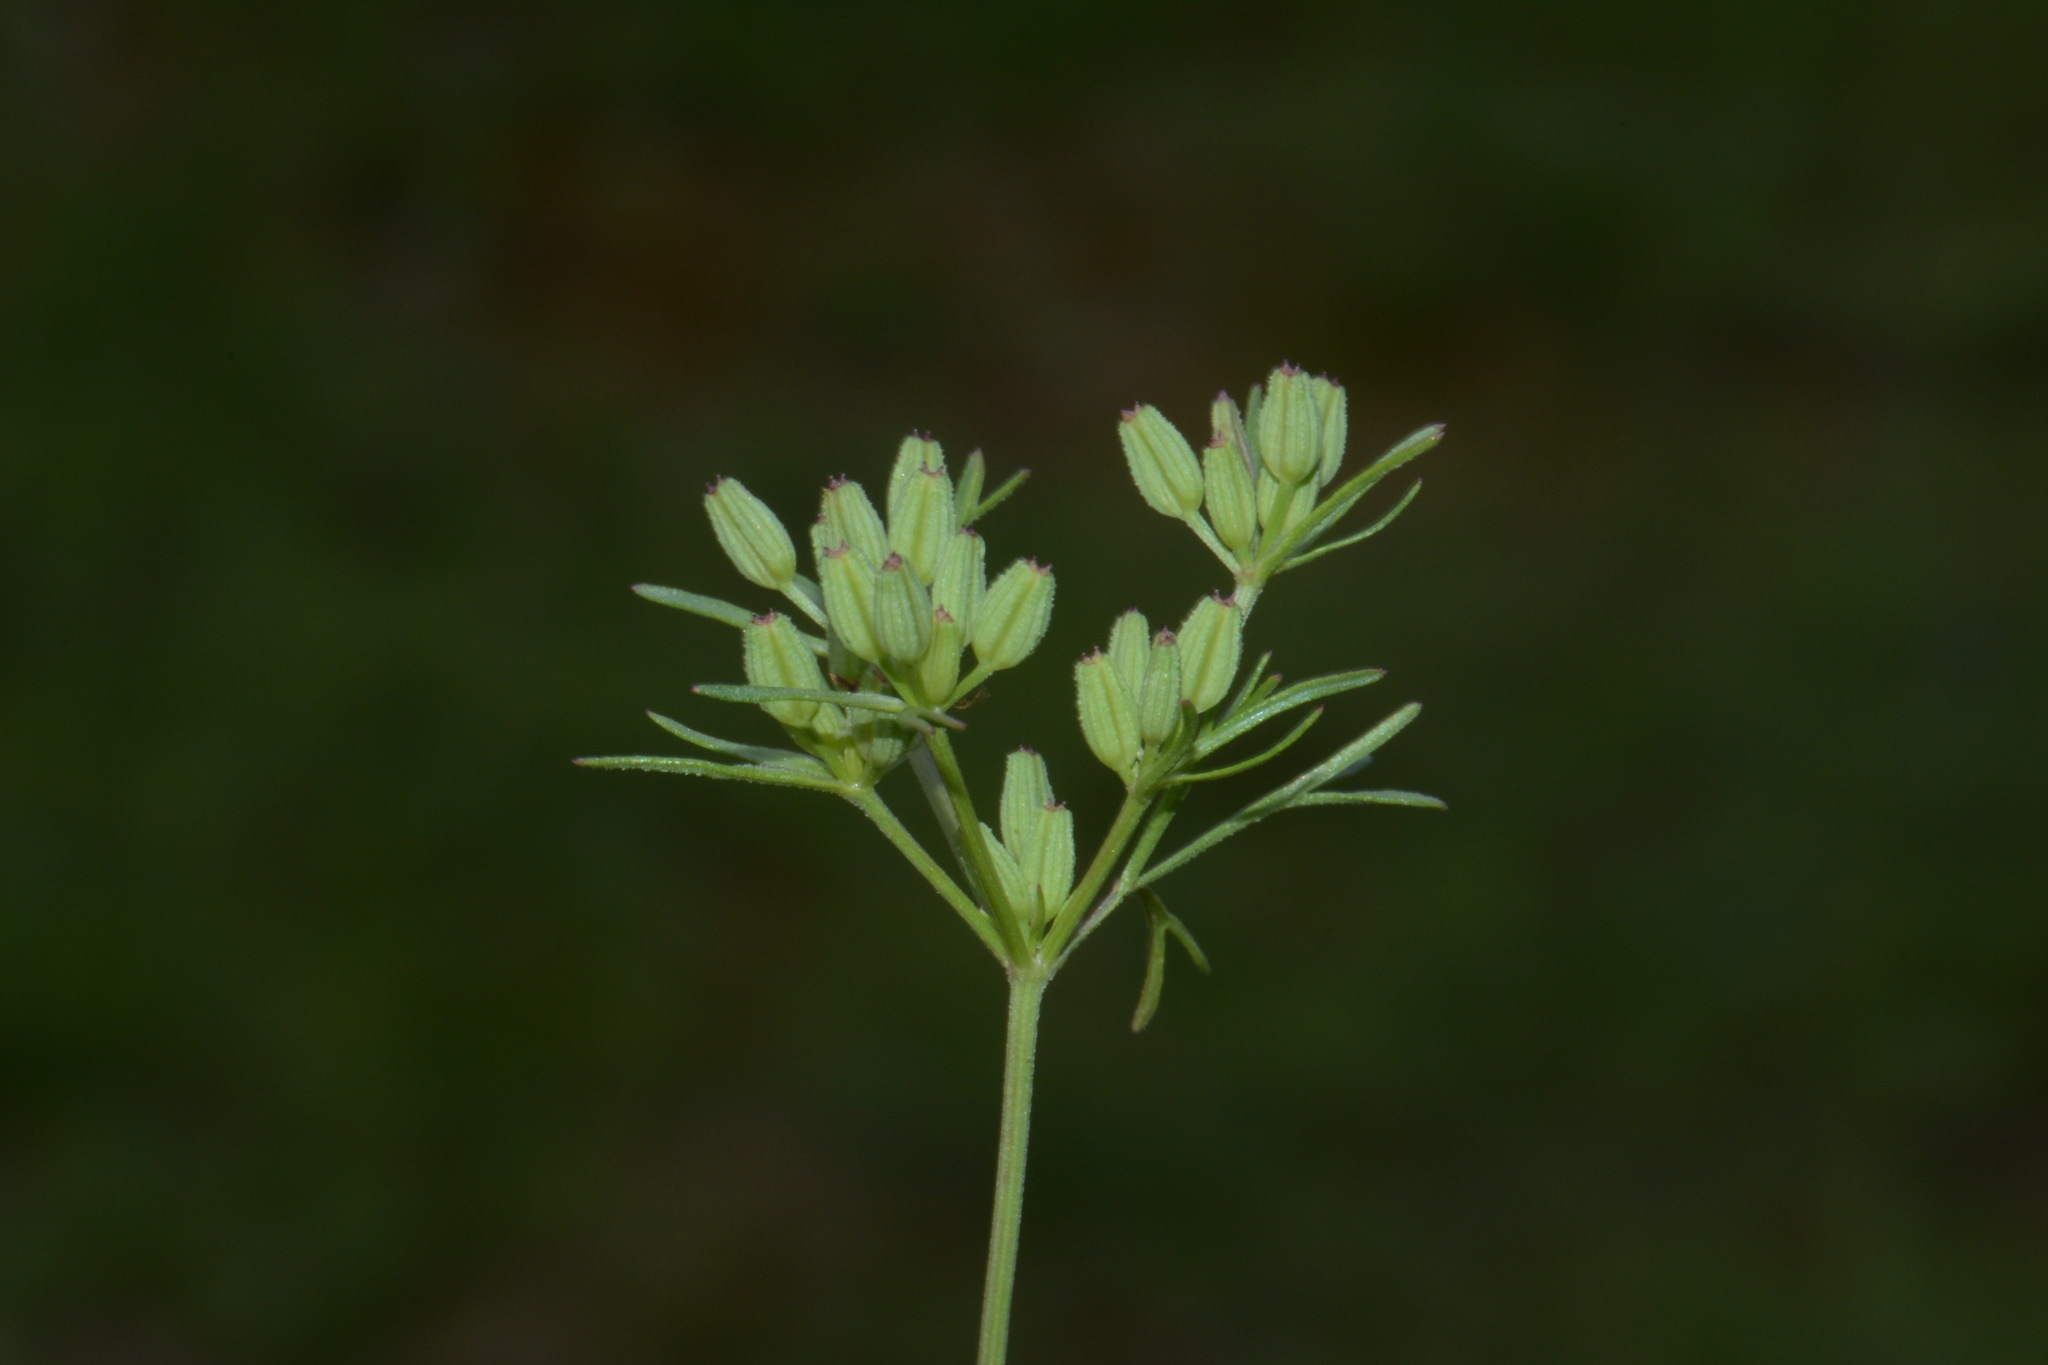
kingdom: Plantae
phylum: Tracheophyta
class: Magnoliopsida
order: Apiales
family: Apiaceae
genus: Ammoselinum
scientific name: Ammoselinum popei
